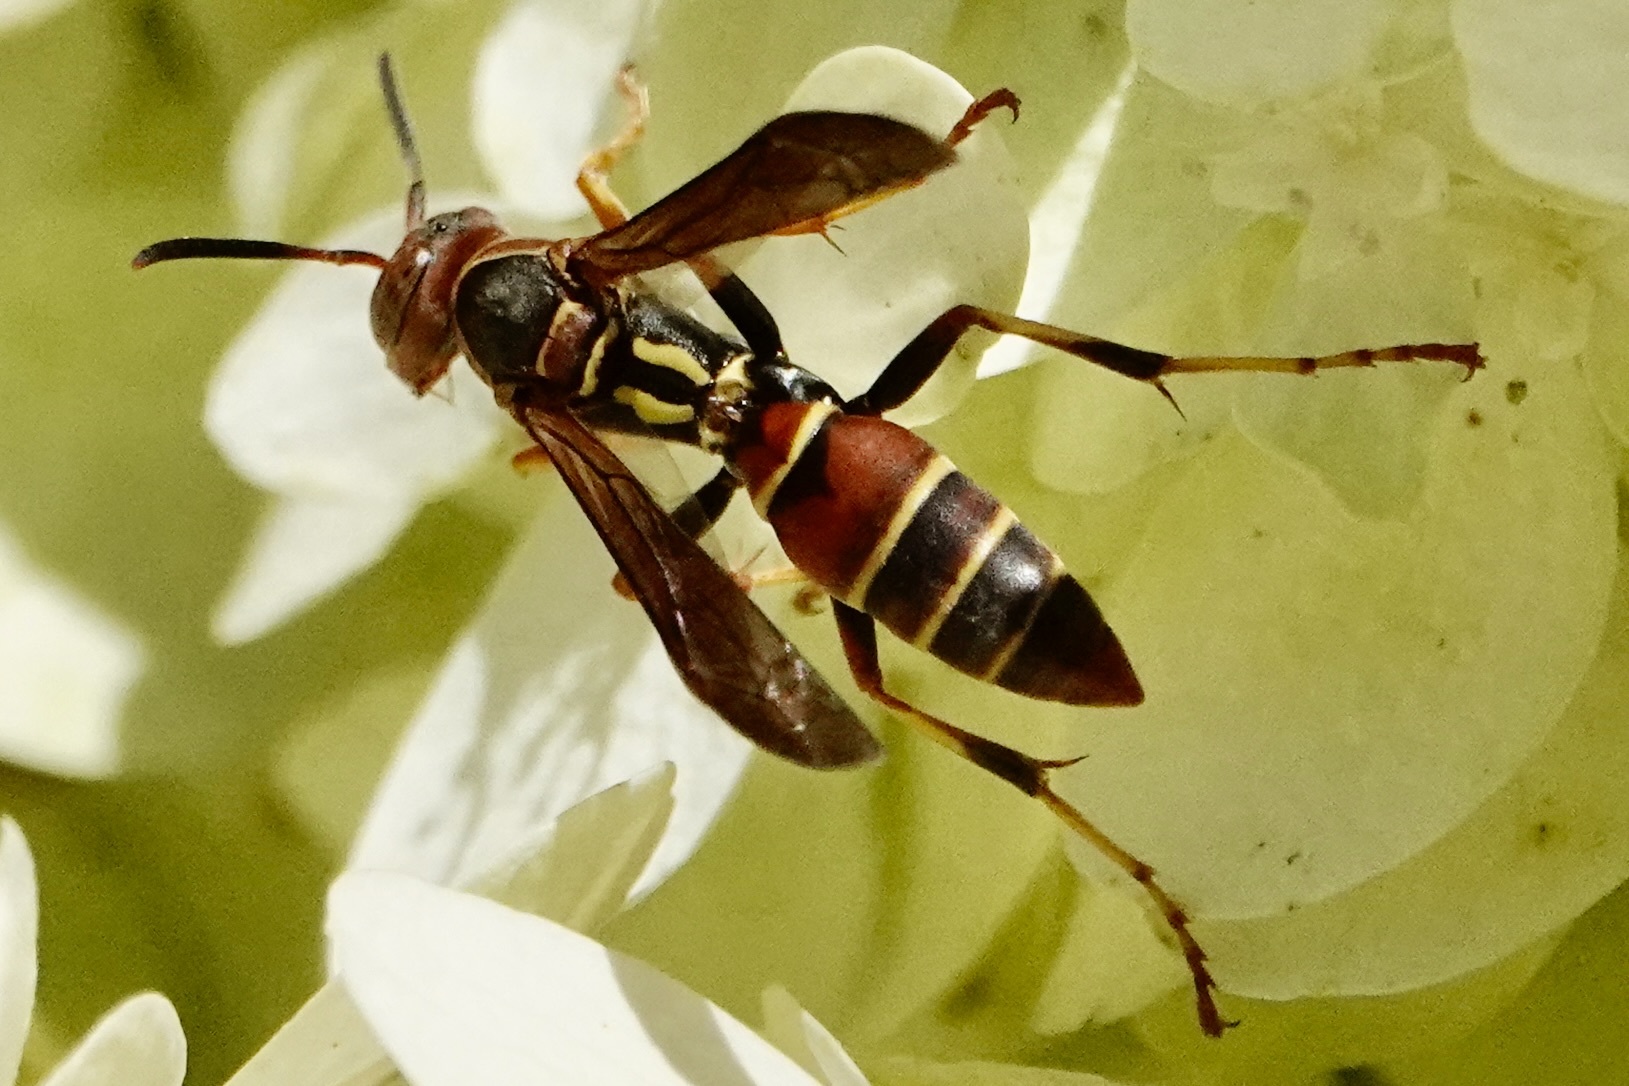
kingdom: Animalia
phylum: Arthropoda
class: Insecta
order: Hymenoptera
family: Eumenidae
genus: Polistes
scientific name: Polistes dorsalis
